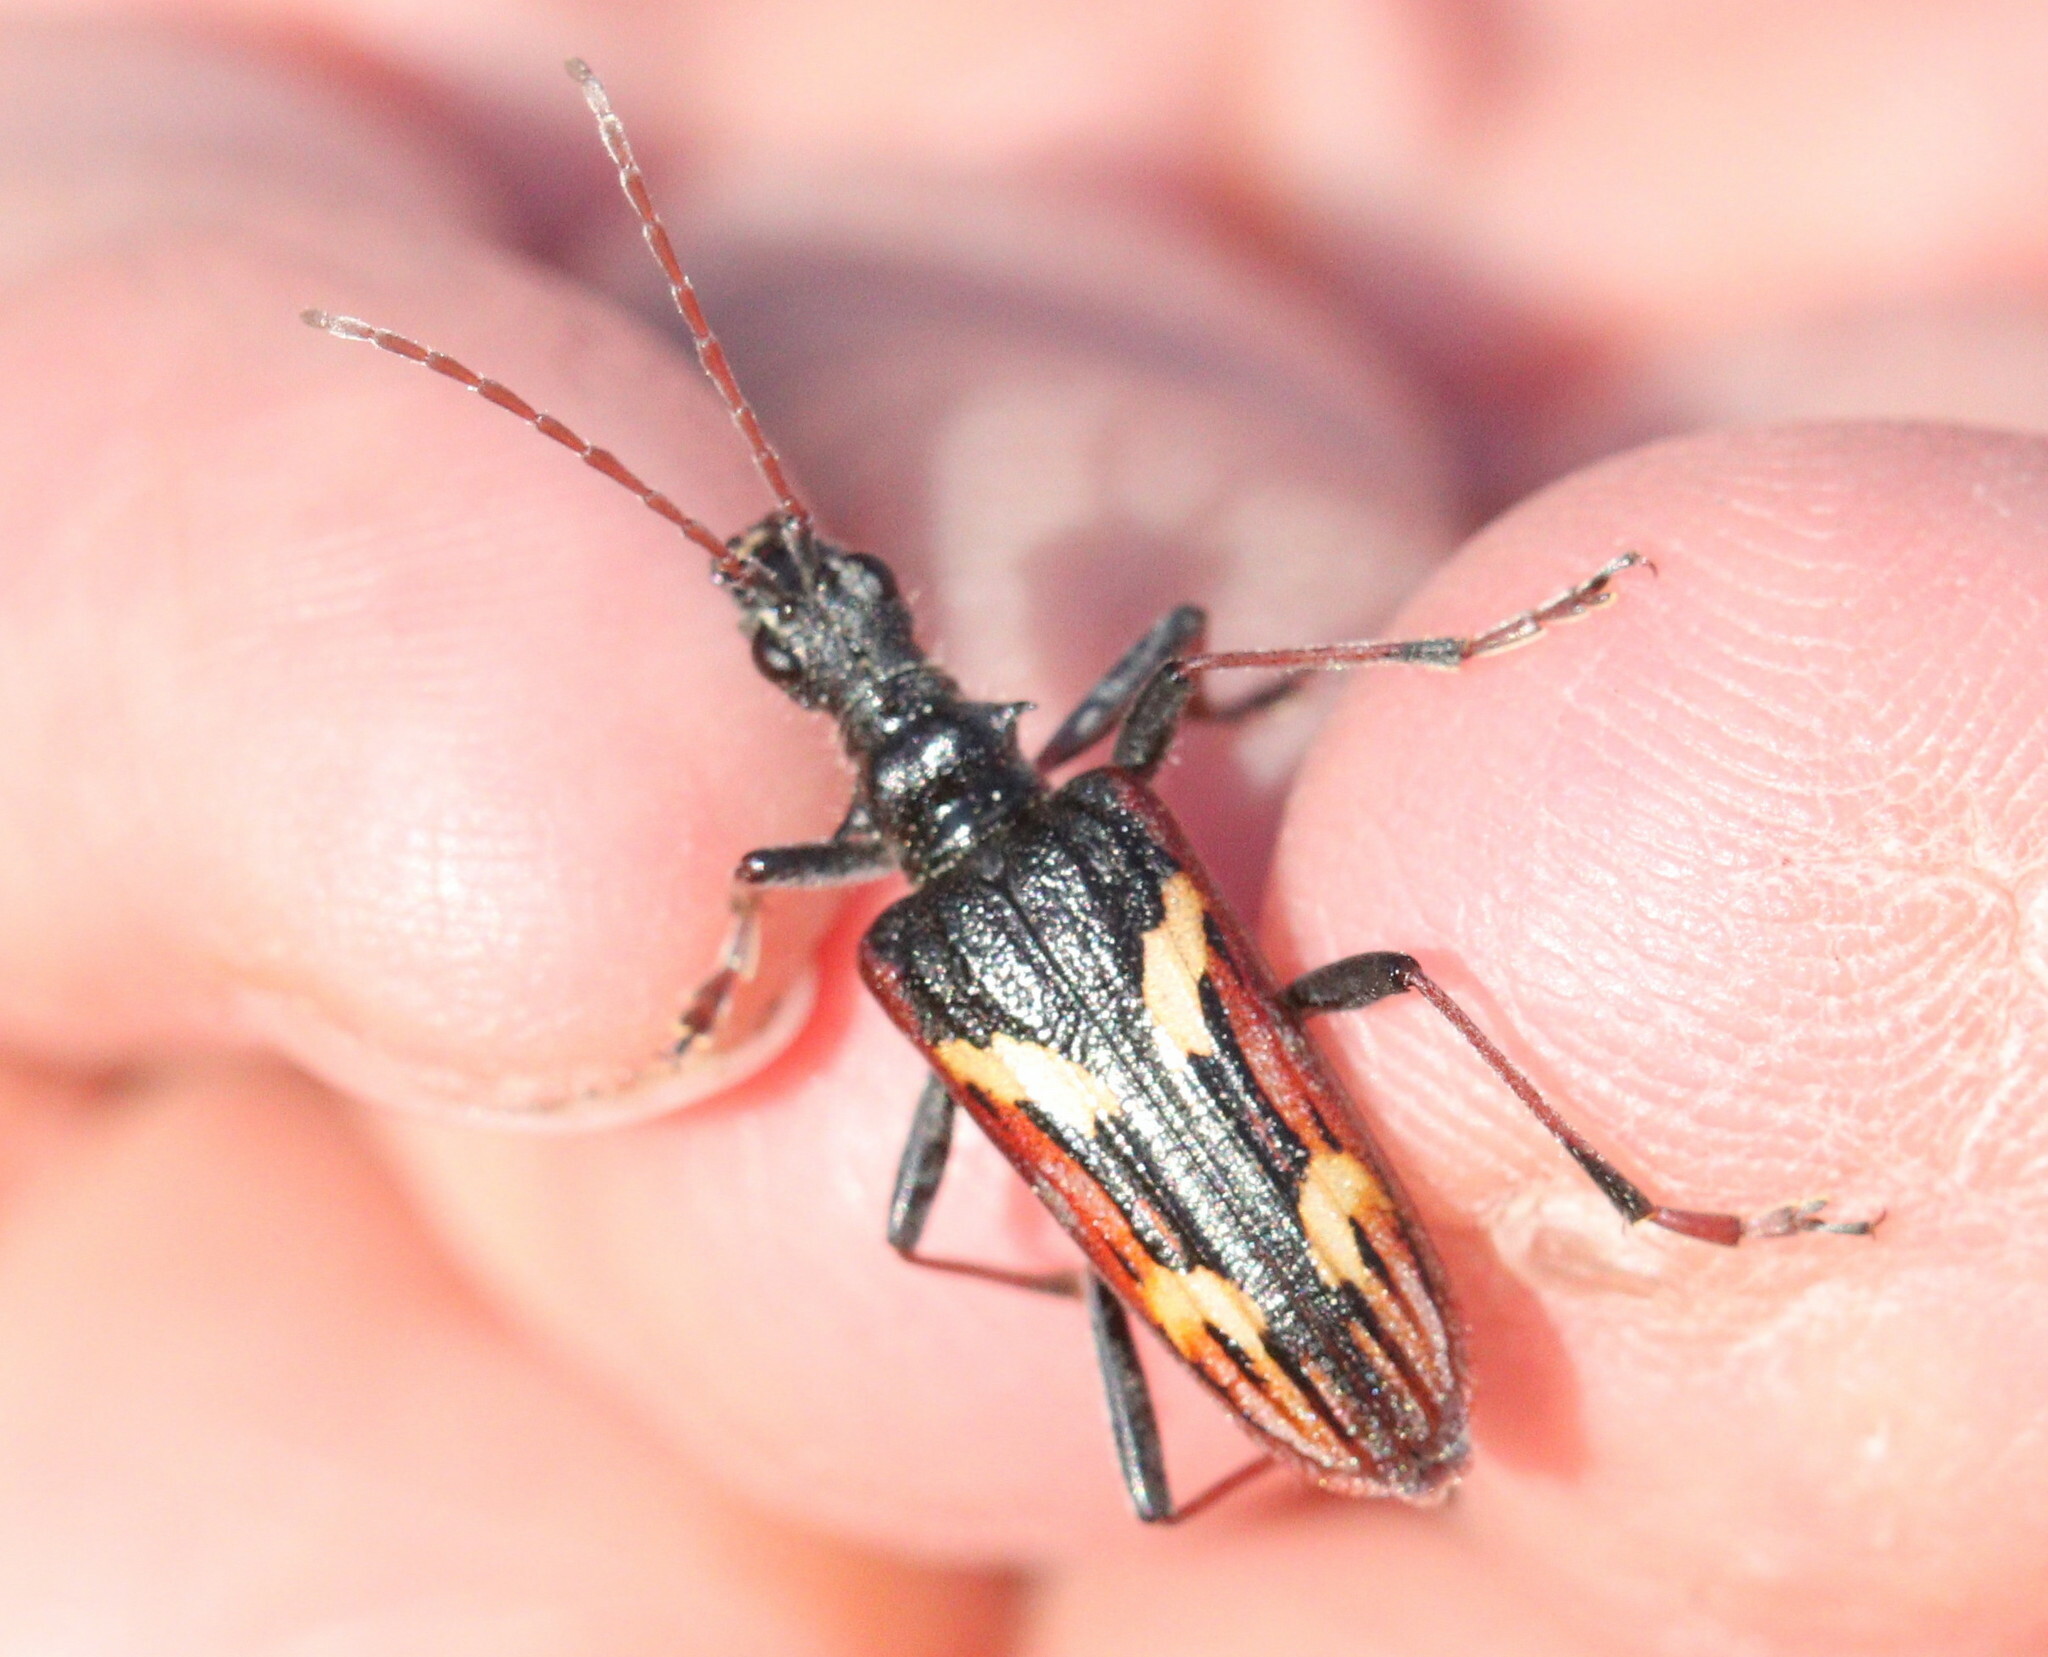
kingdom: Animalia
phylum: Arthropoda
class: Insecta
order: Coleoptera
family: Cerambycidae
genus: Rhagium
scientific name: Rhagium bifasciatum
